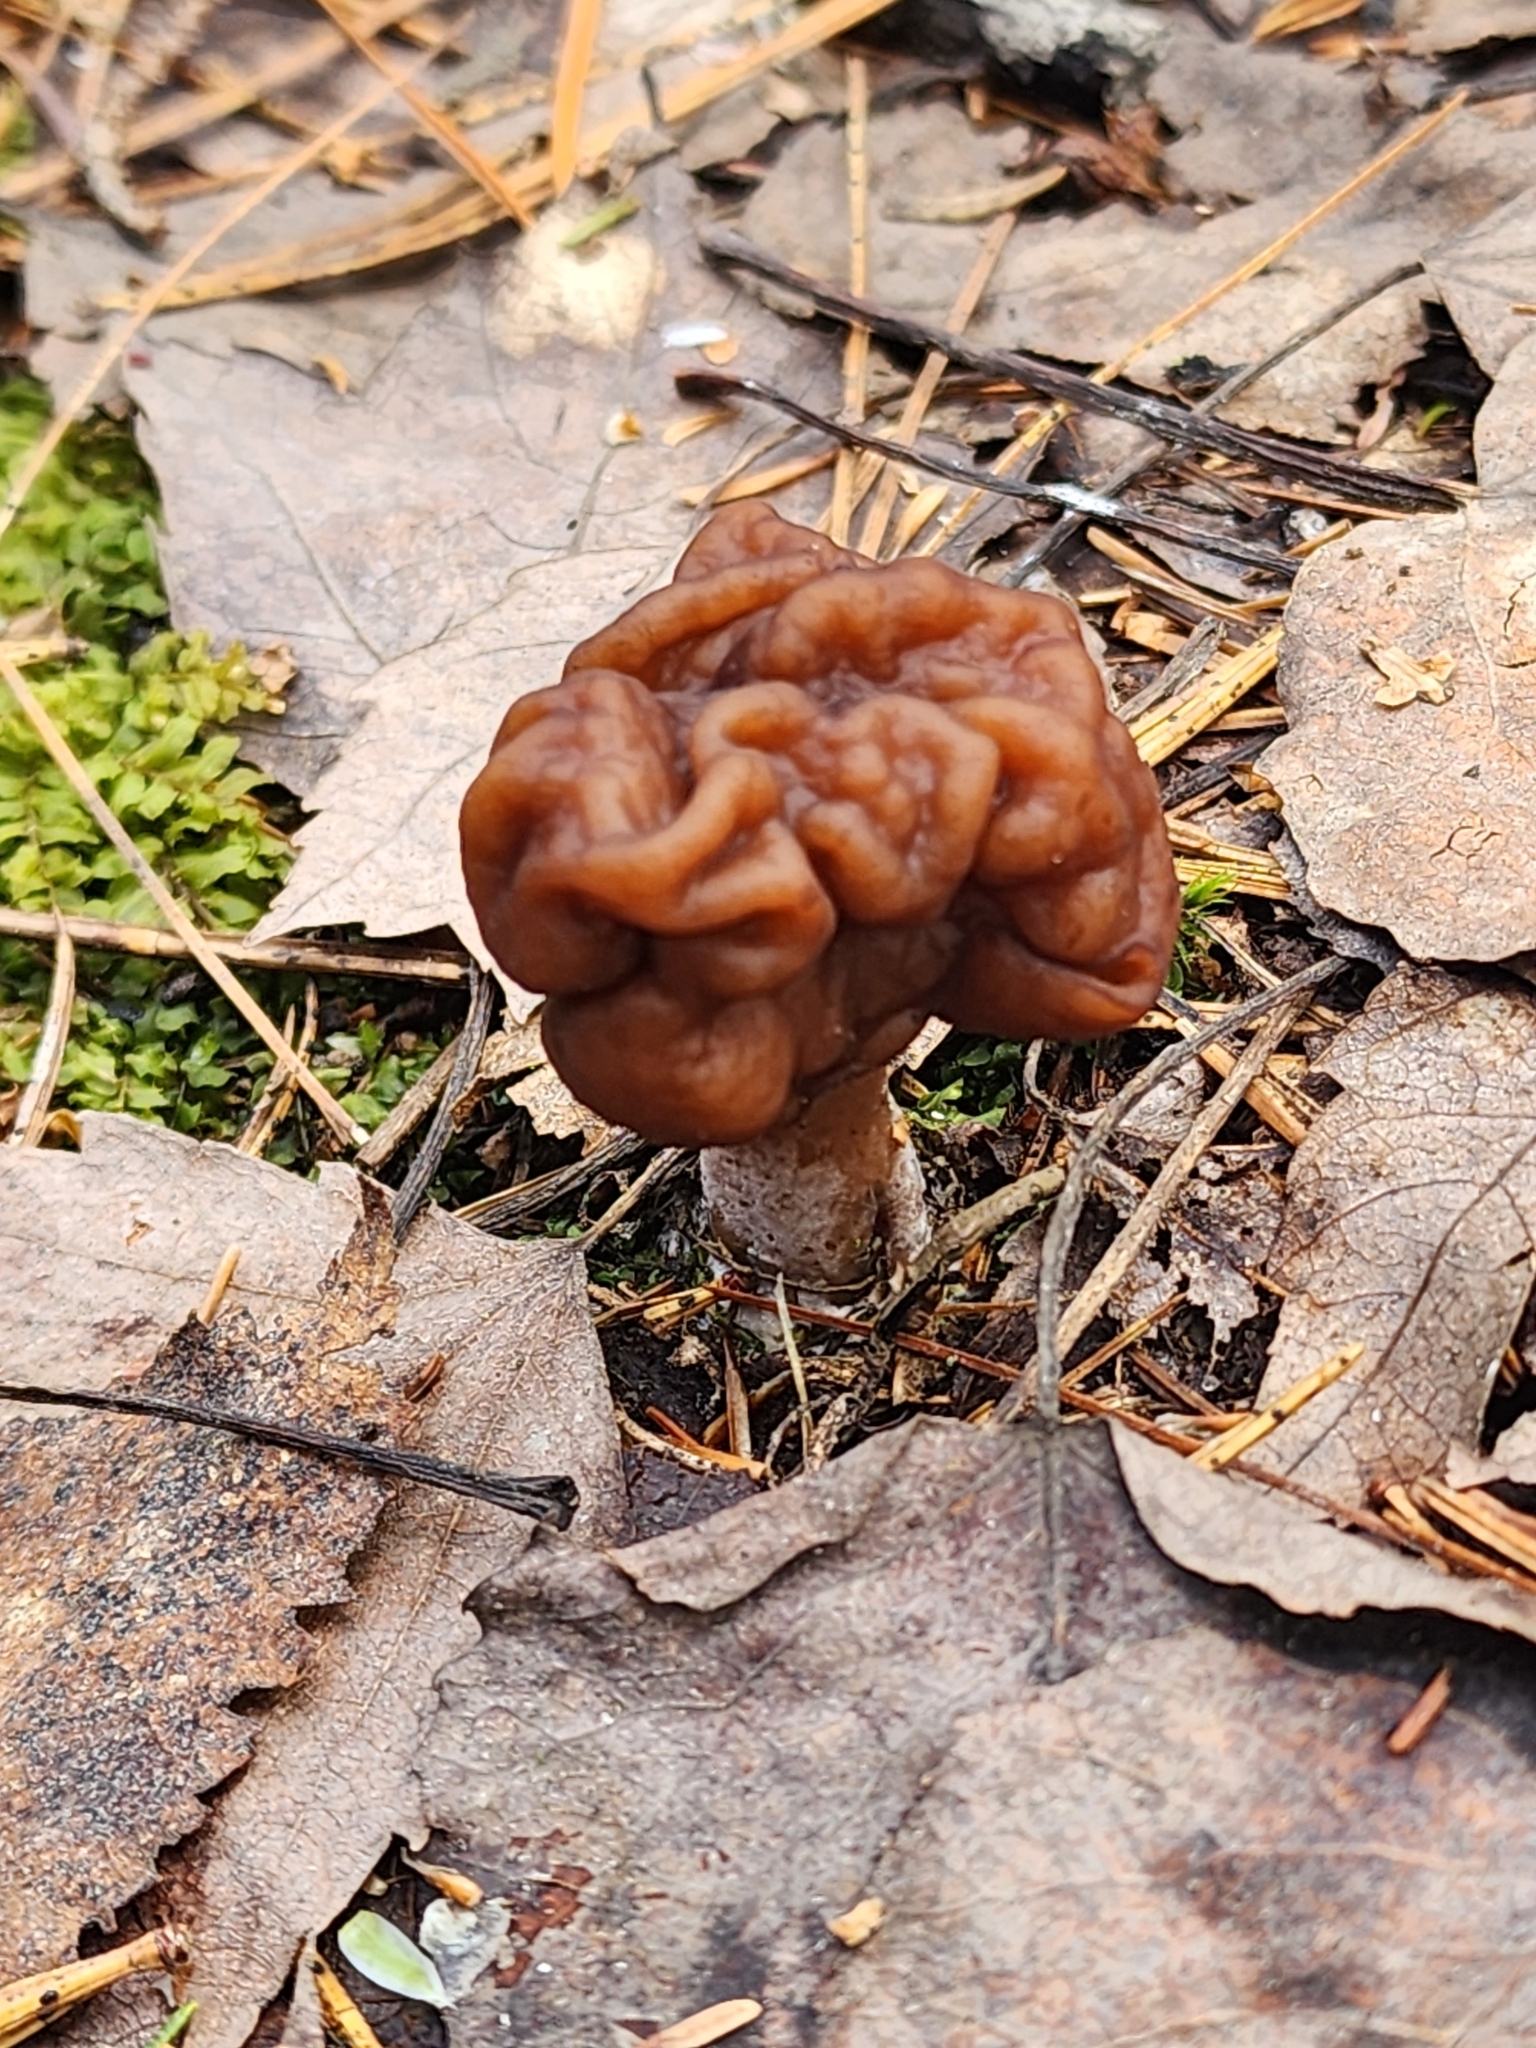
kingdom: Fungi
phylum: Ascomycota
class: Pezizomycetes
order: Pezizales
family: Discinaceae
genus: Gyromitra
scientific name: Gyromitra esculenta
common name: False morel
